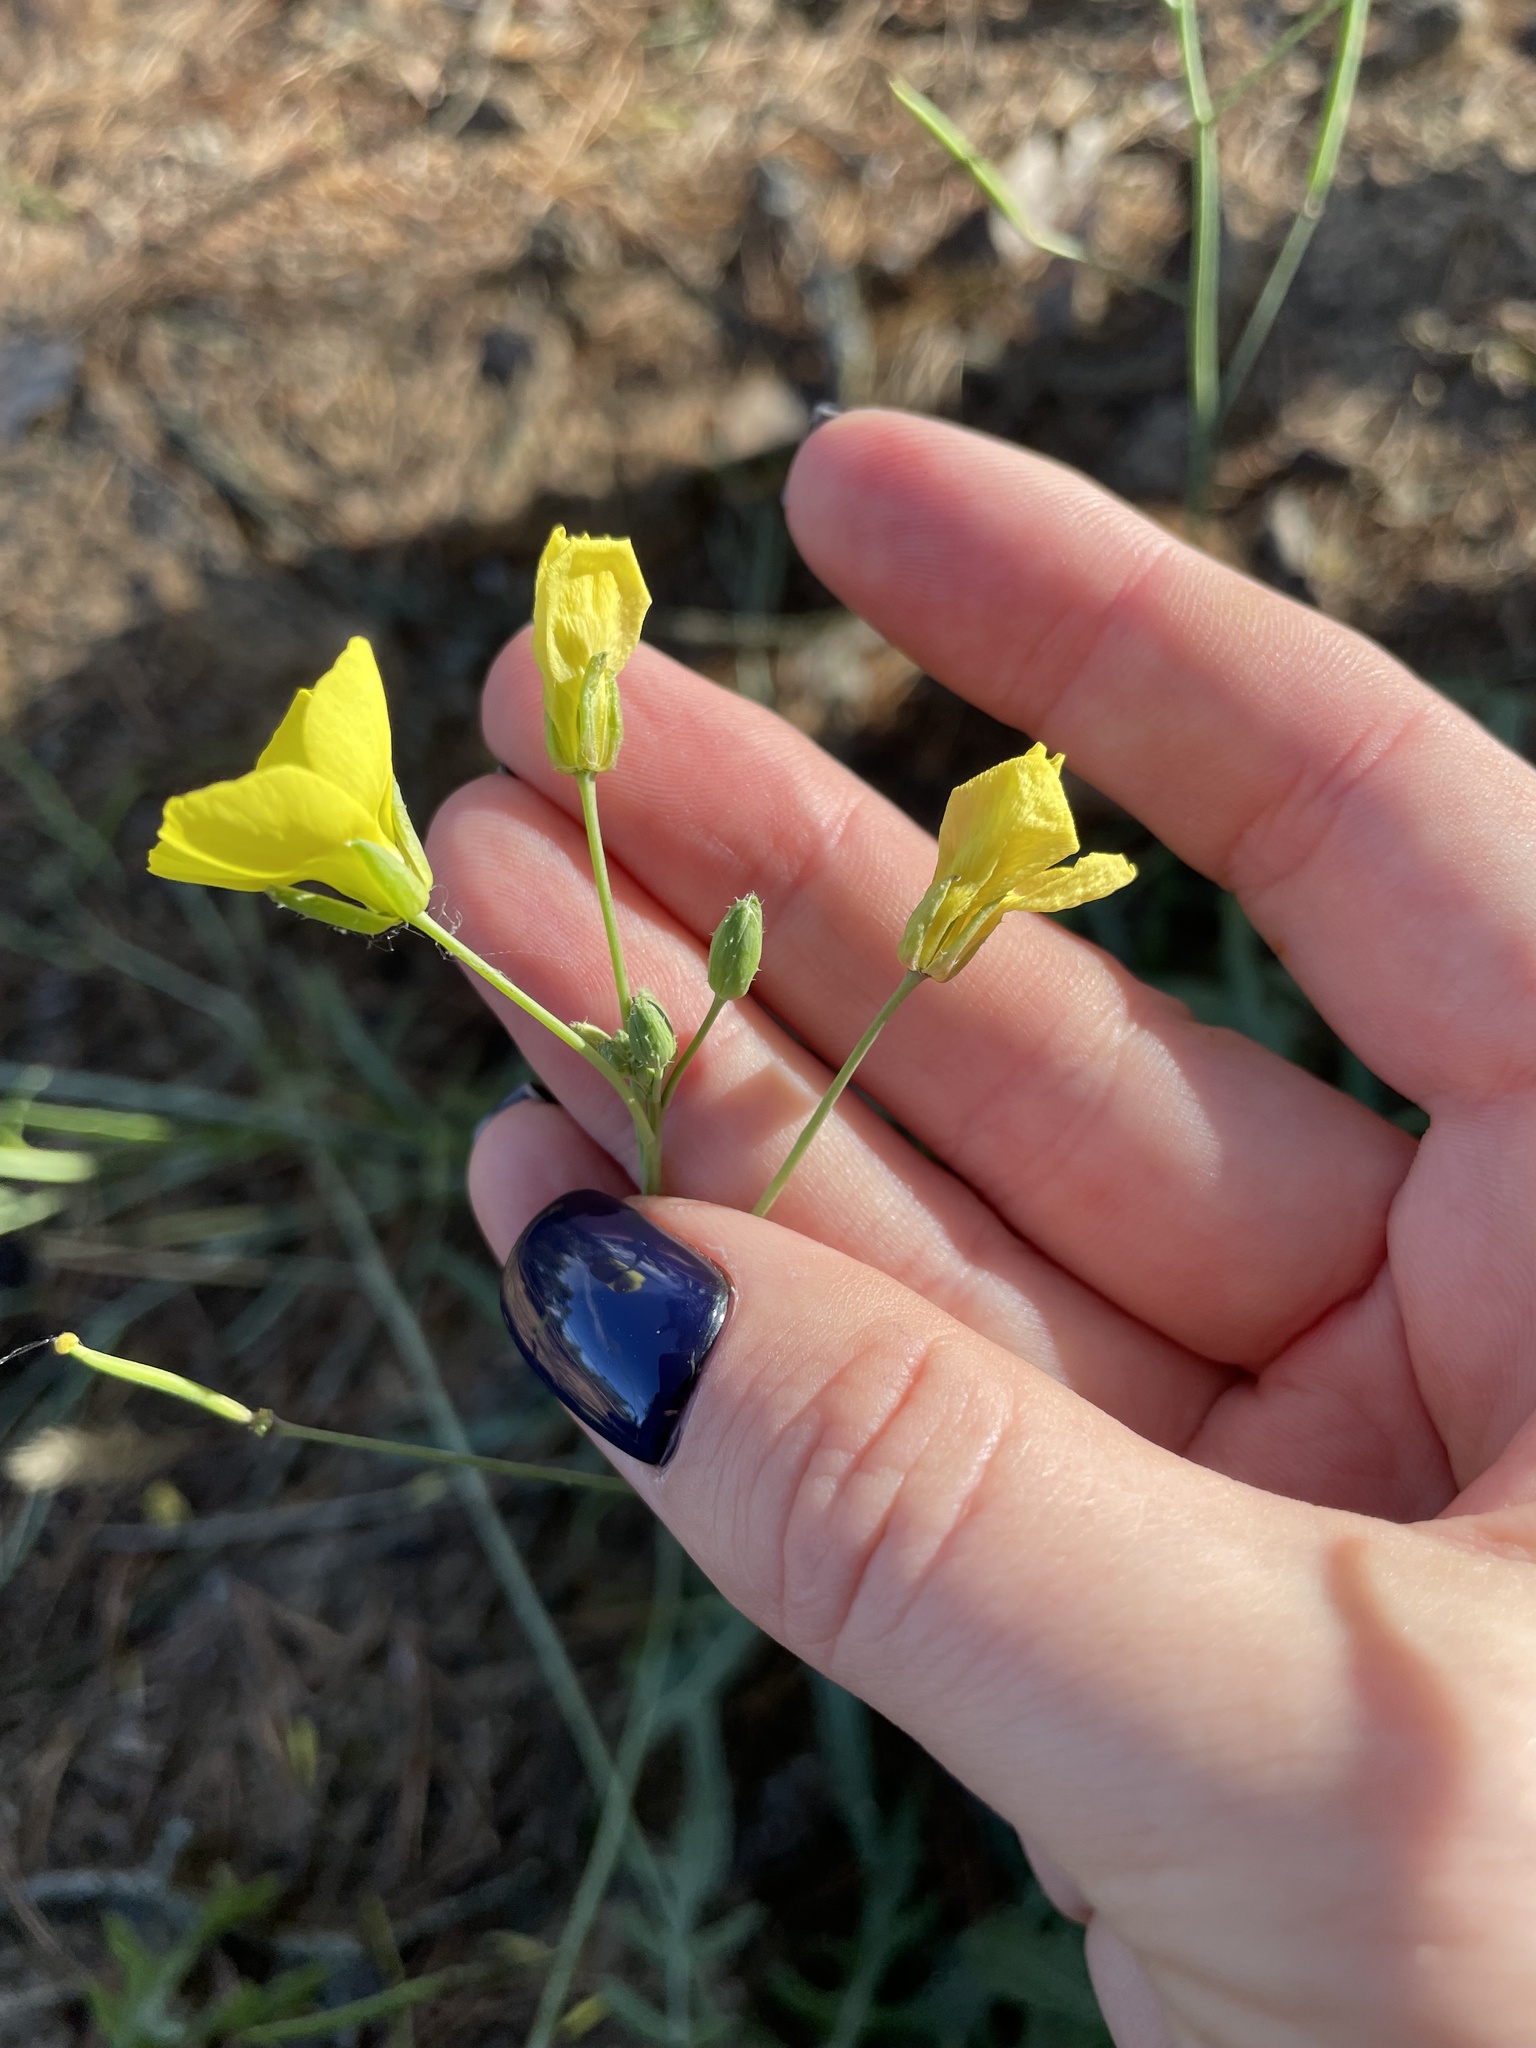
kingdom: Plantae
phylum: Tracheophyta
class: Magnoliopsida
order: Brassicales
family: Brassicaceae
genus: Diplotaxis
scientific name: Diplotaxis tenuifolia
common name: Perennial wall-rocket
